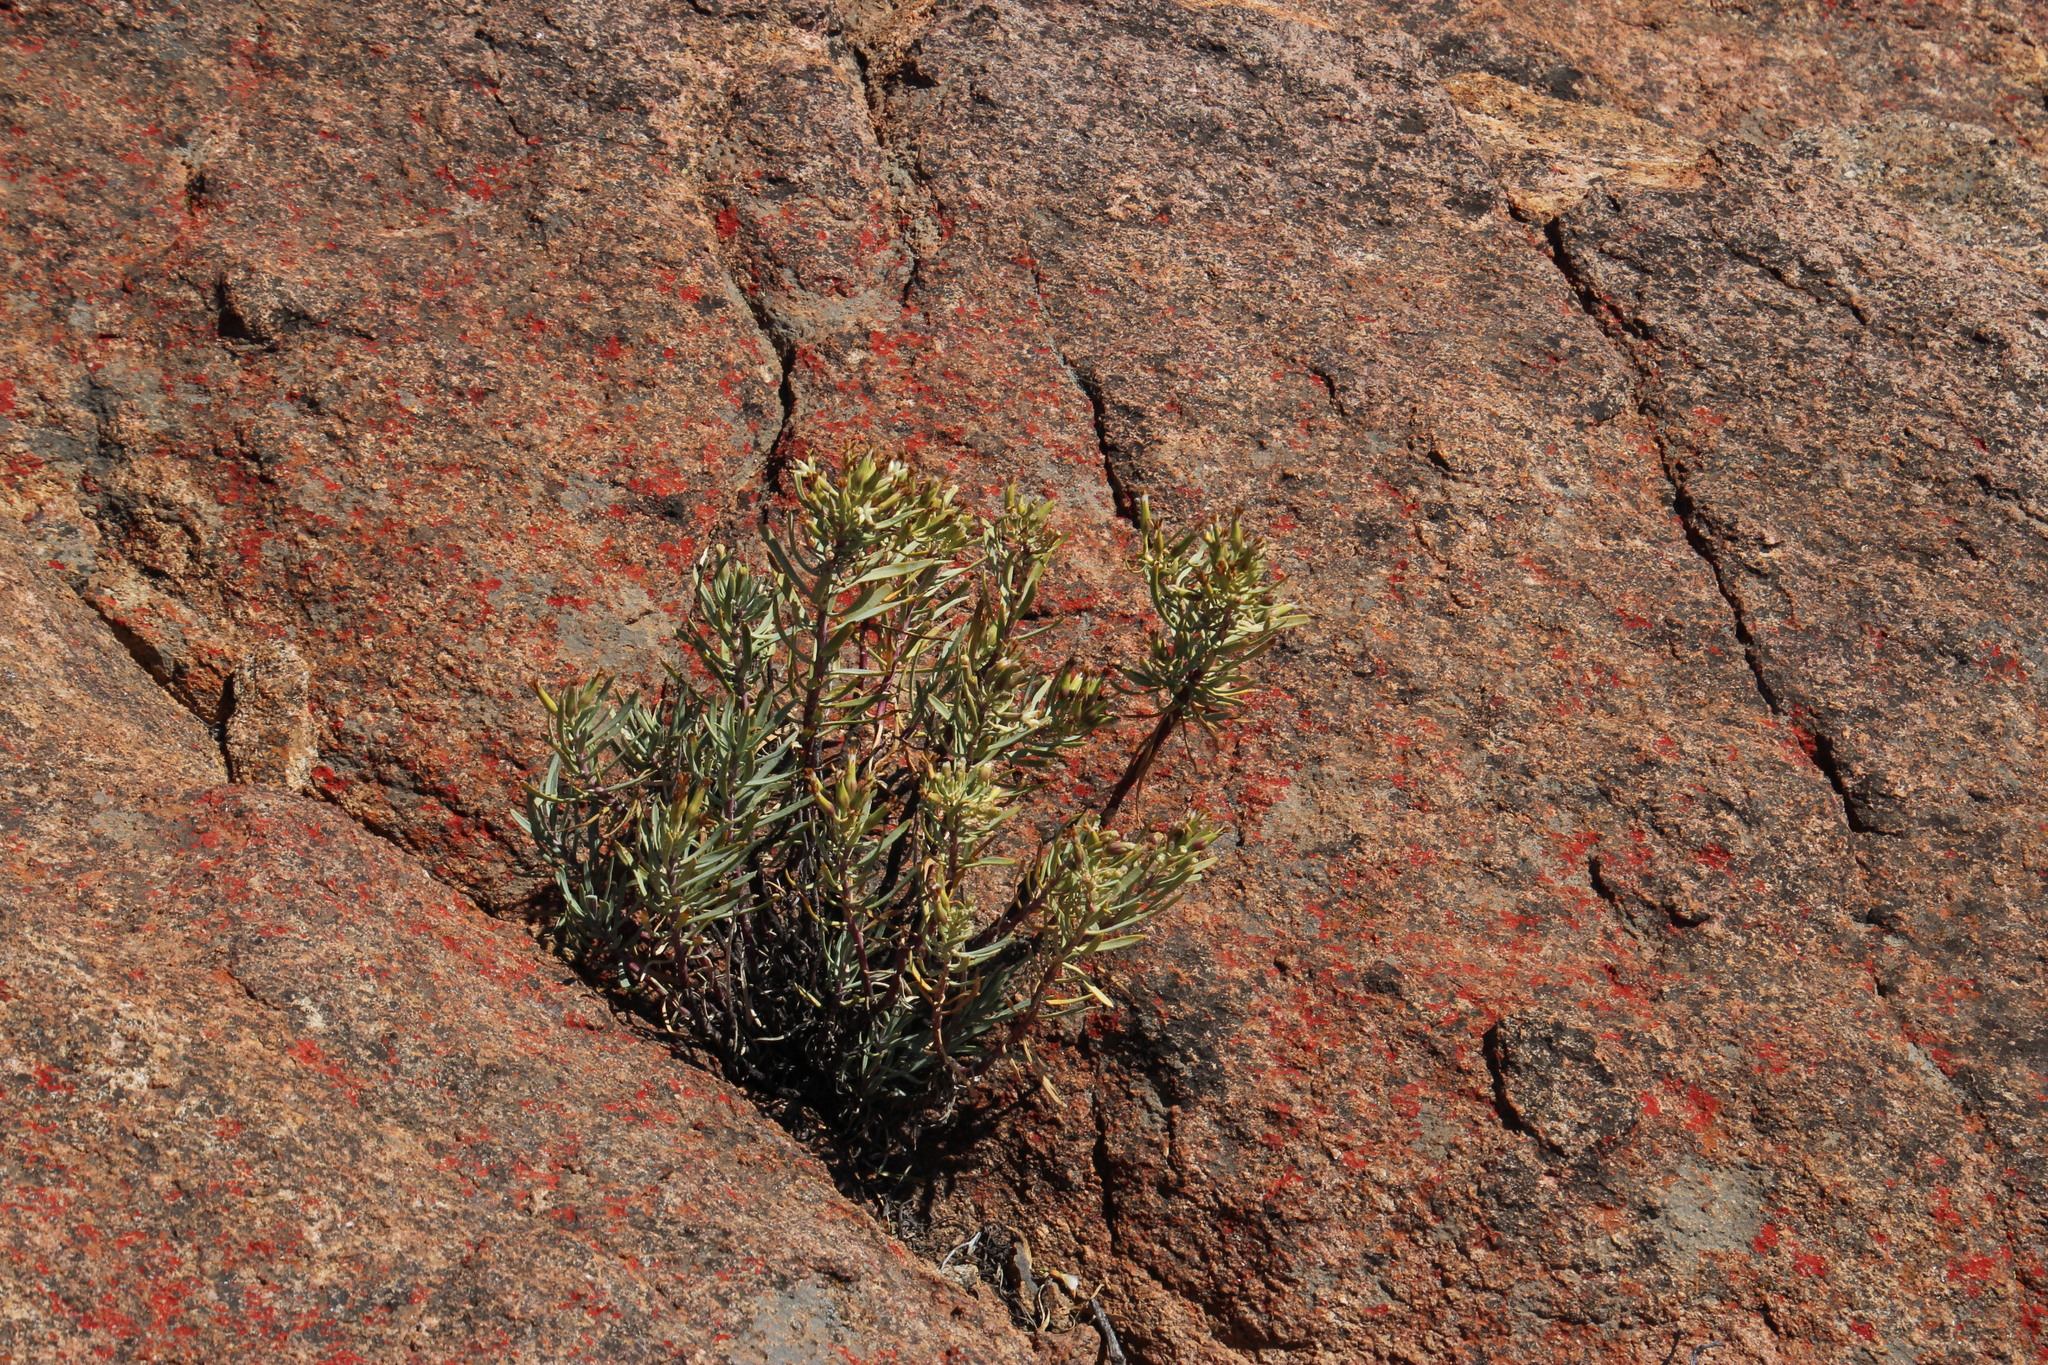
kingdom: Plantae
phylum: Tracheophyta
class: Magnoliopsida
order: Asterales
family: Asteraceae
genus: Lopholaena
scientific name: Lopholaena cneorifolia
